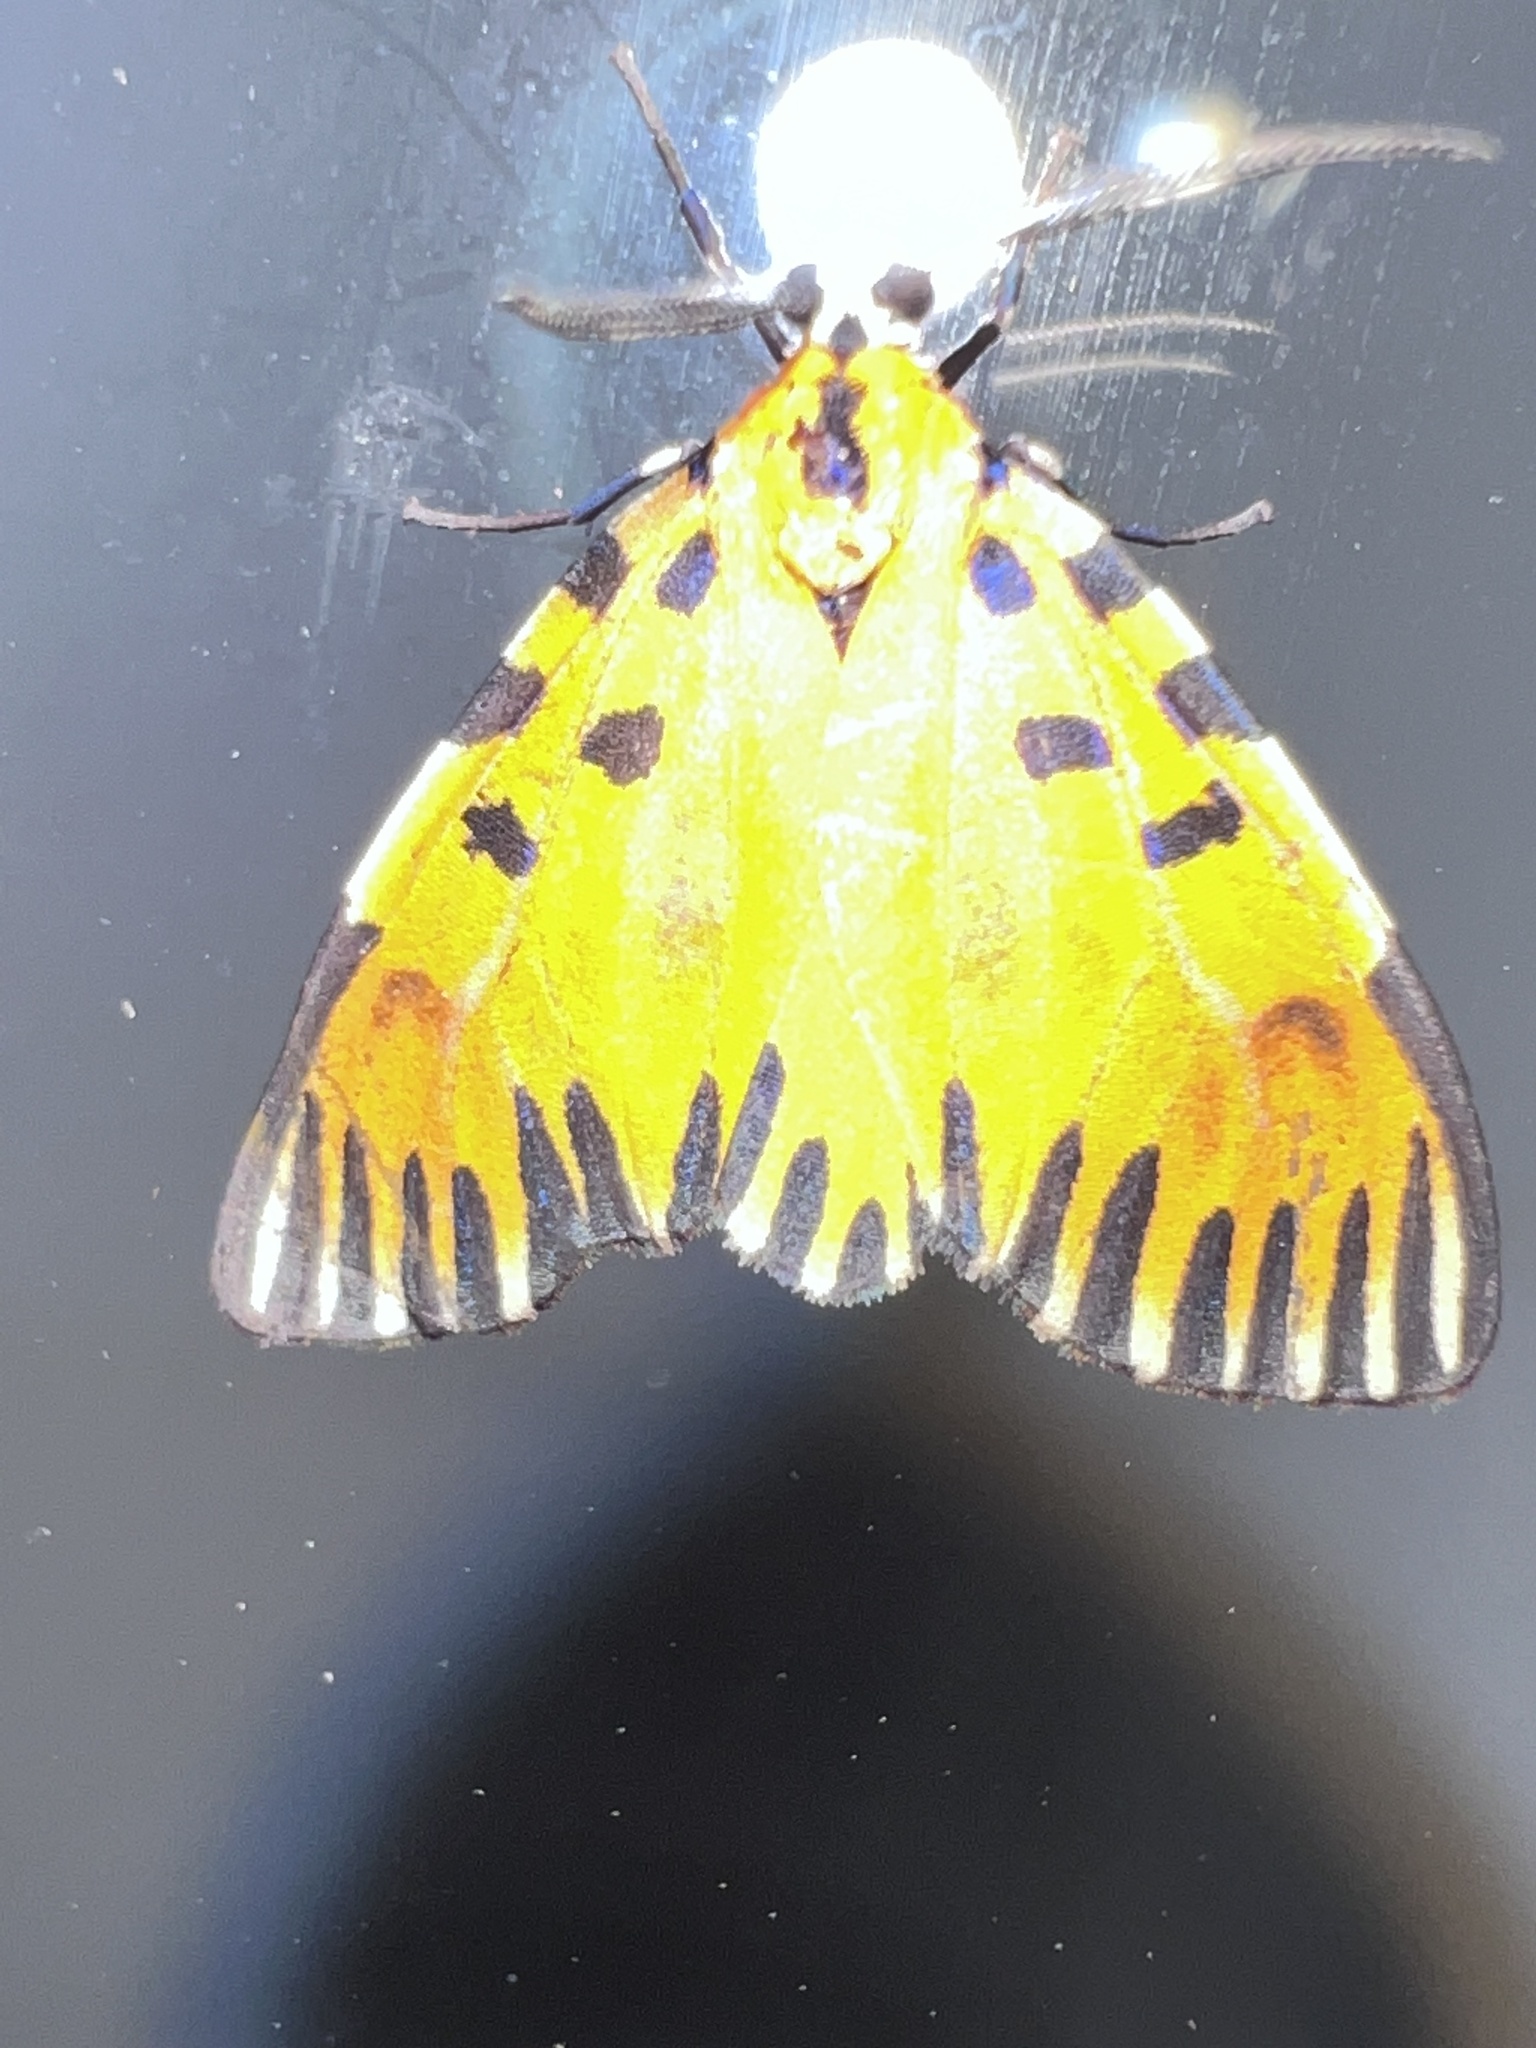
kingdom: Animalia
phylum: Arthropoda
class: Insecta
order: Lepidoptera
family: Erebidae
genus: Mesenochroa
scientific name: Mesenochroa rogersi
